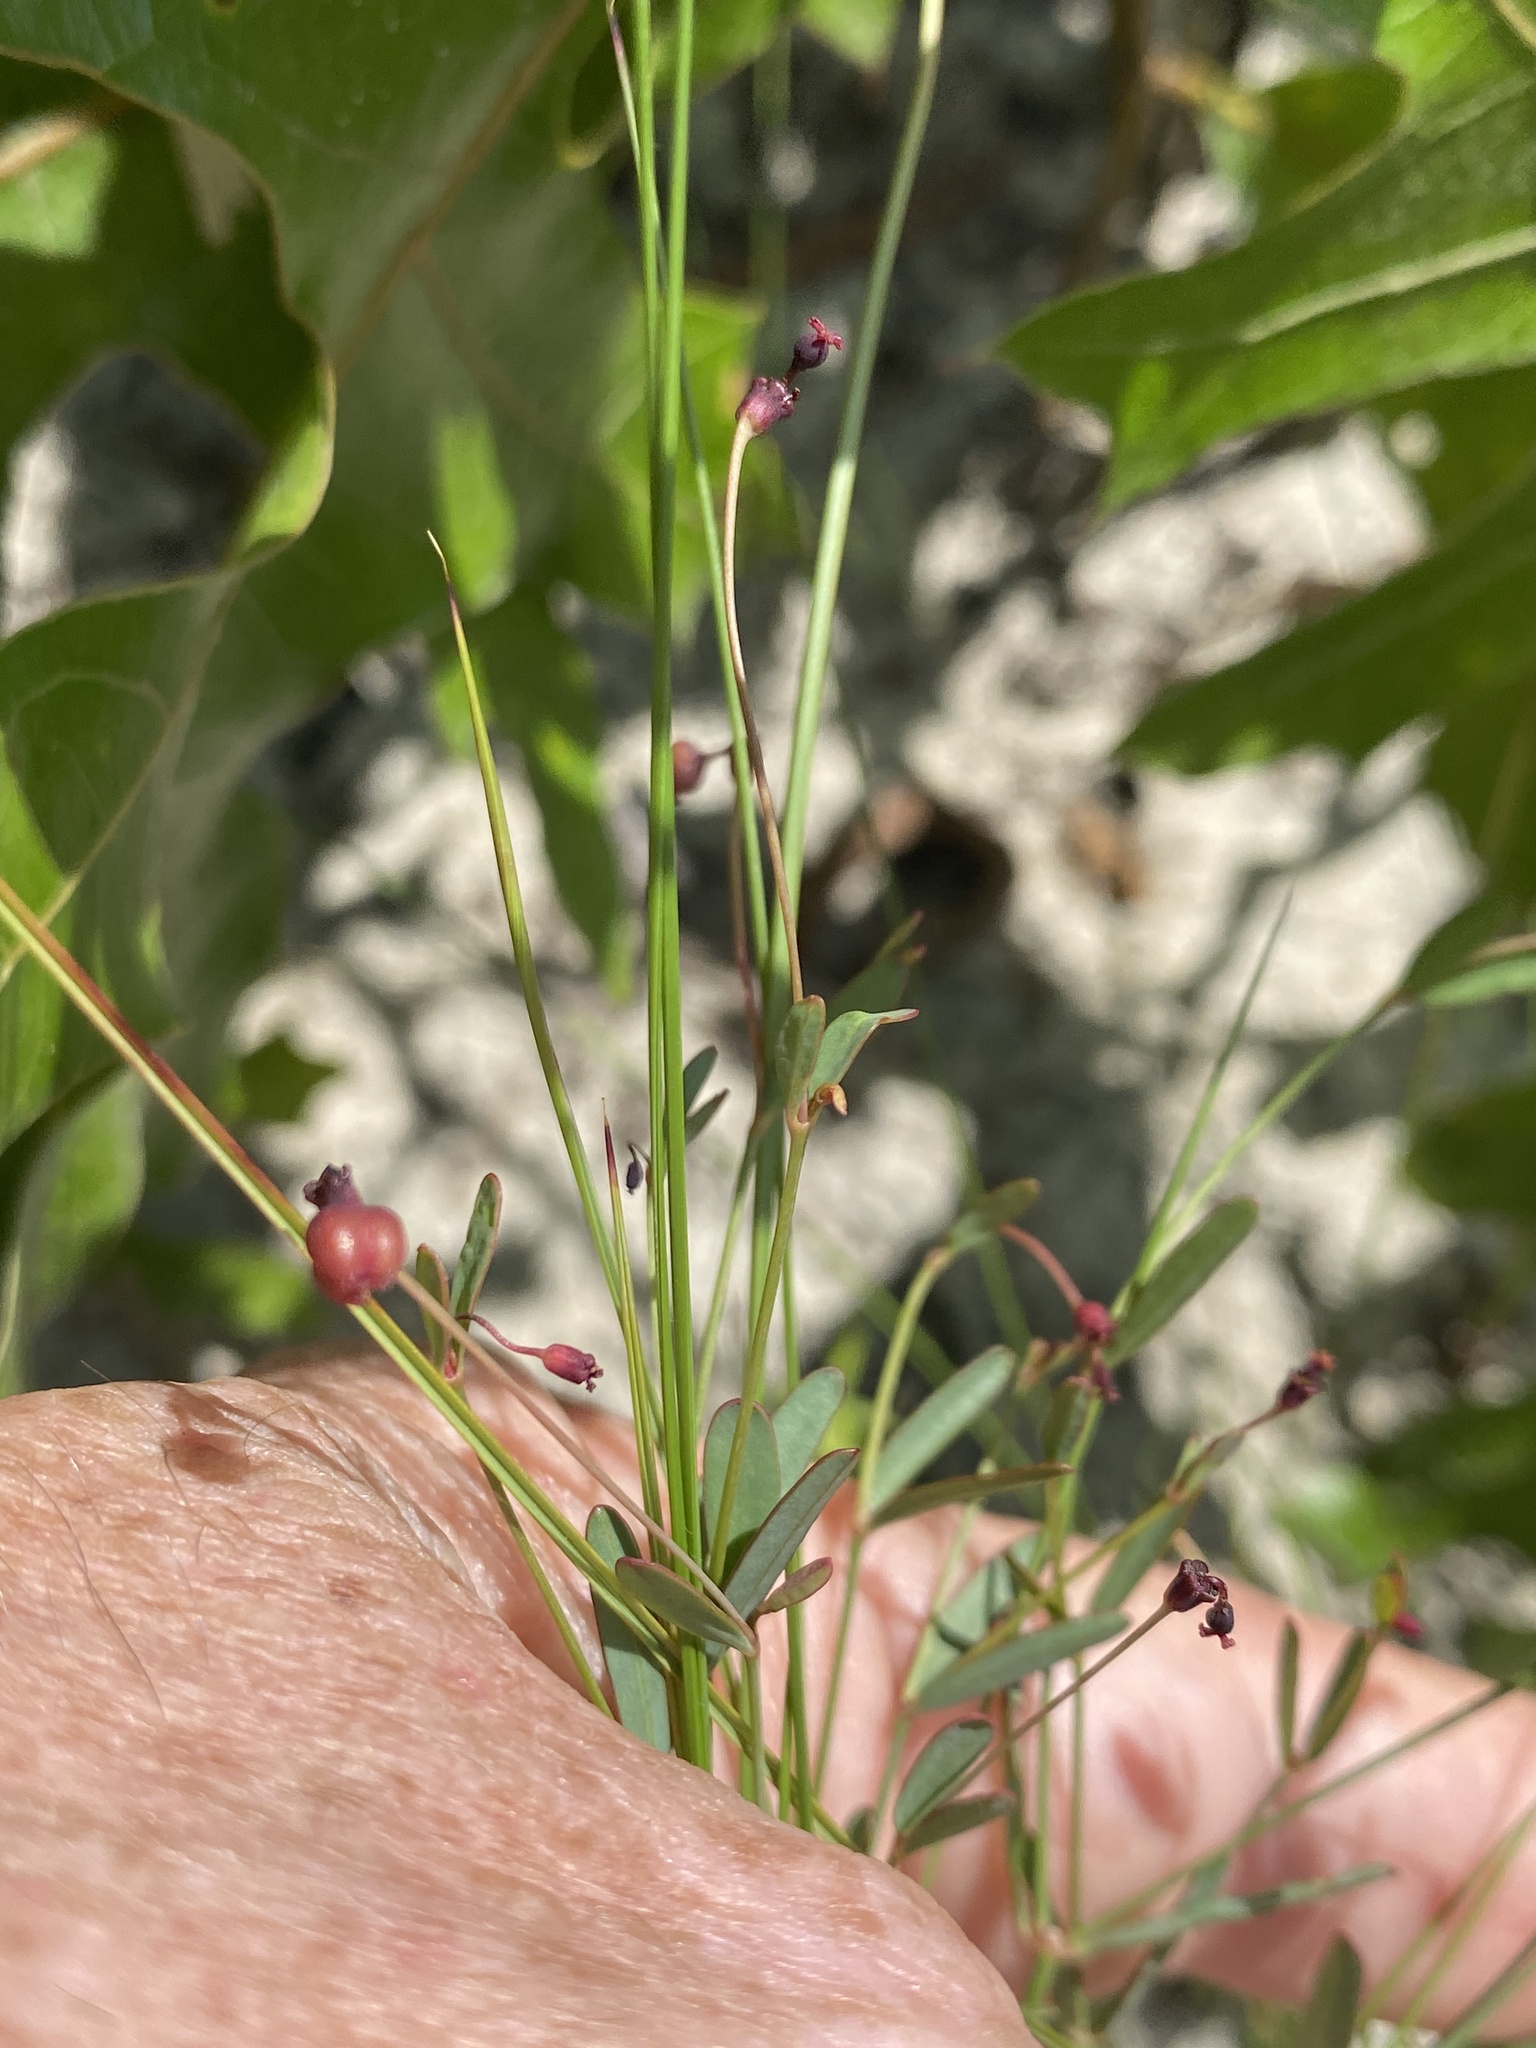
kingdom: Plantae
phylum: Tracheophyta
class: Magnoliopsida
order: Malpighiales
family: Euphorbiaceae
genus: Euphorbia
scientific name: Euphorbia exserta
